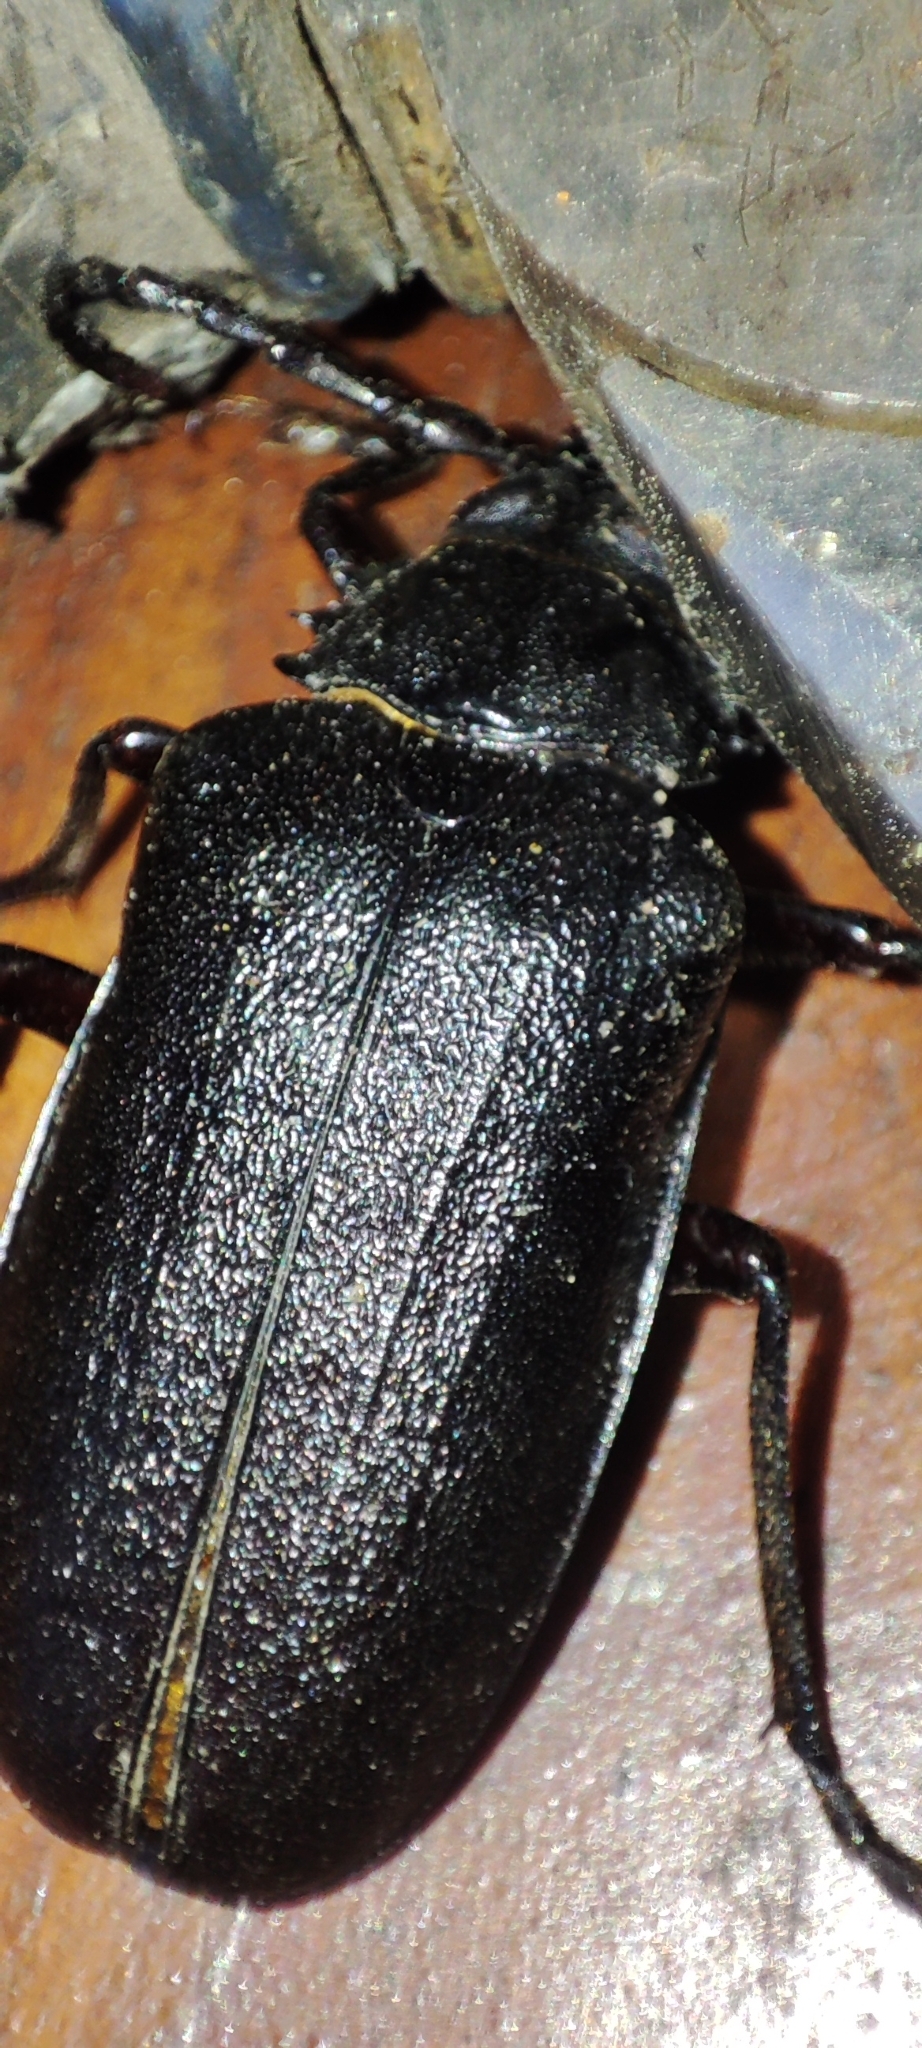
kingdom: Animalia
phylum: Arthropoda
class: Insecta
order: Coleoptera
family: Cerambycidae
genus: Prionus
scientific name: Prionus coriarius
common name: Tanner beetle
